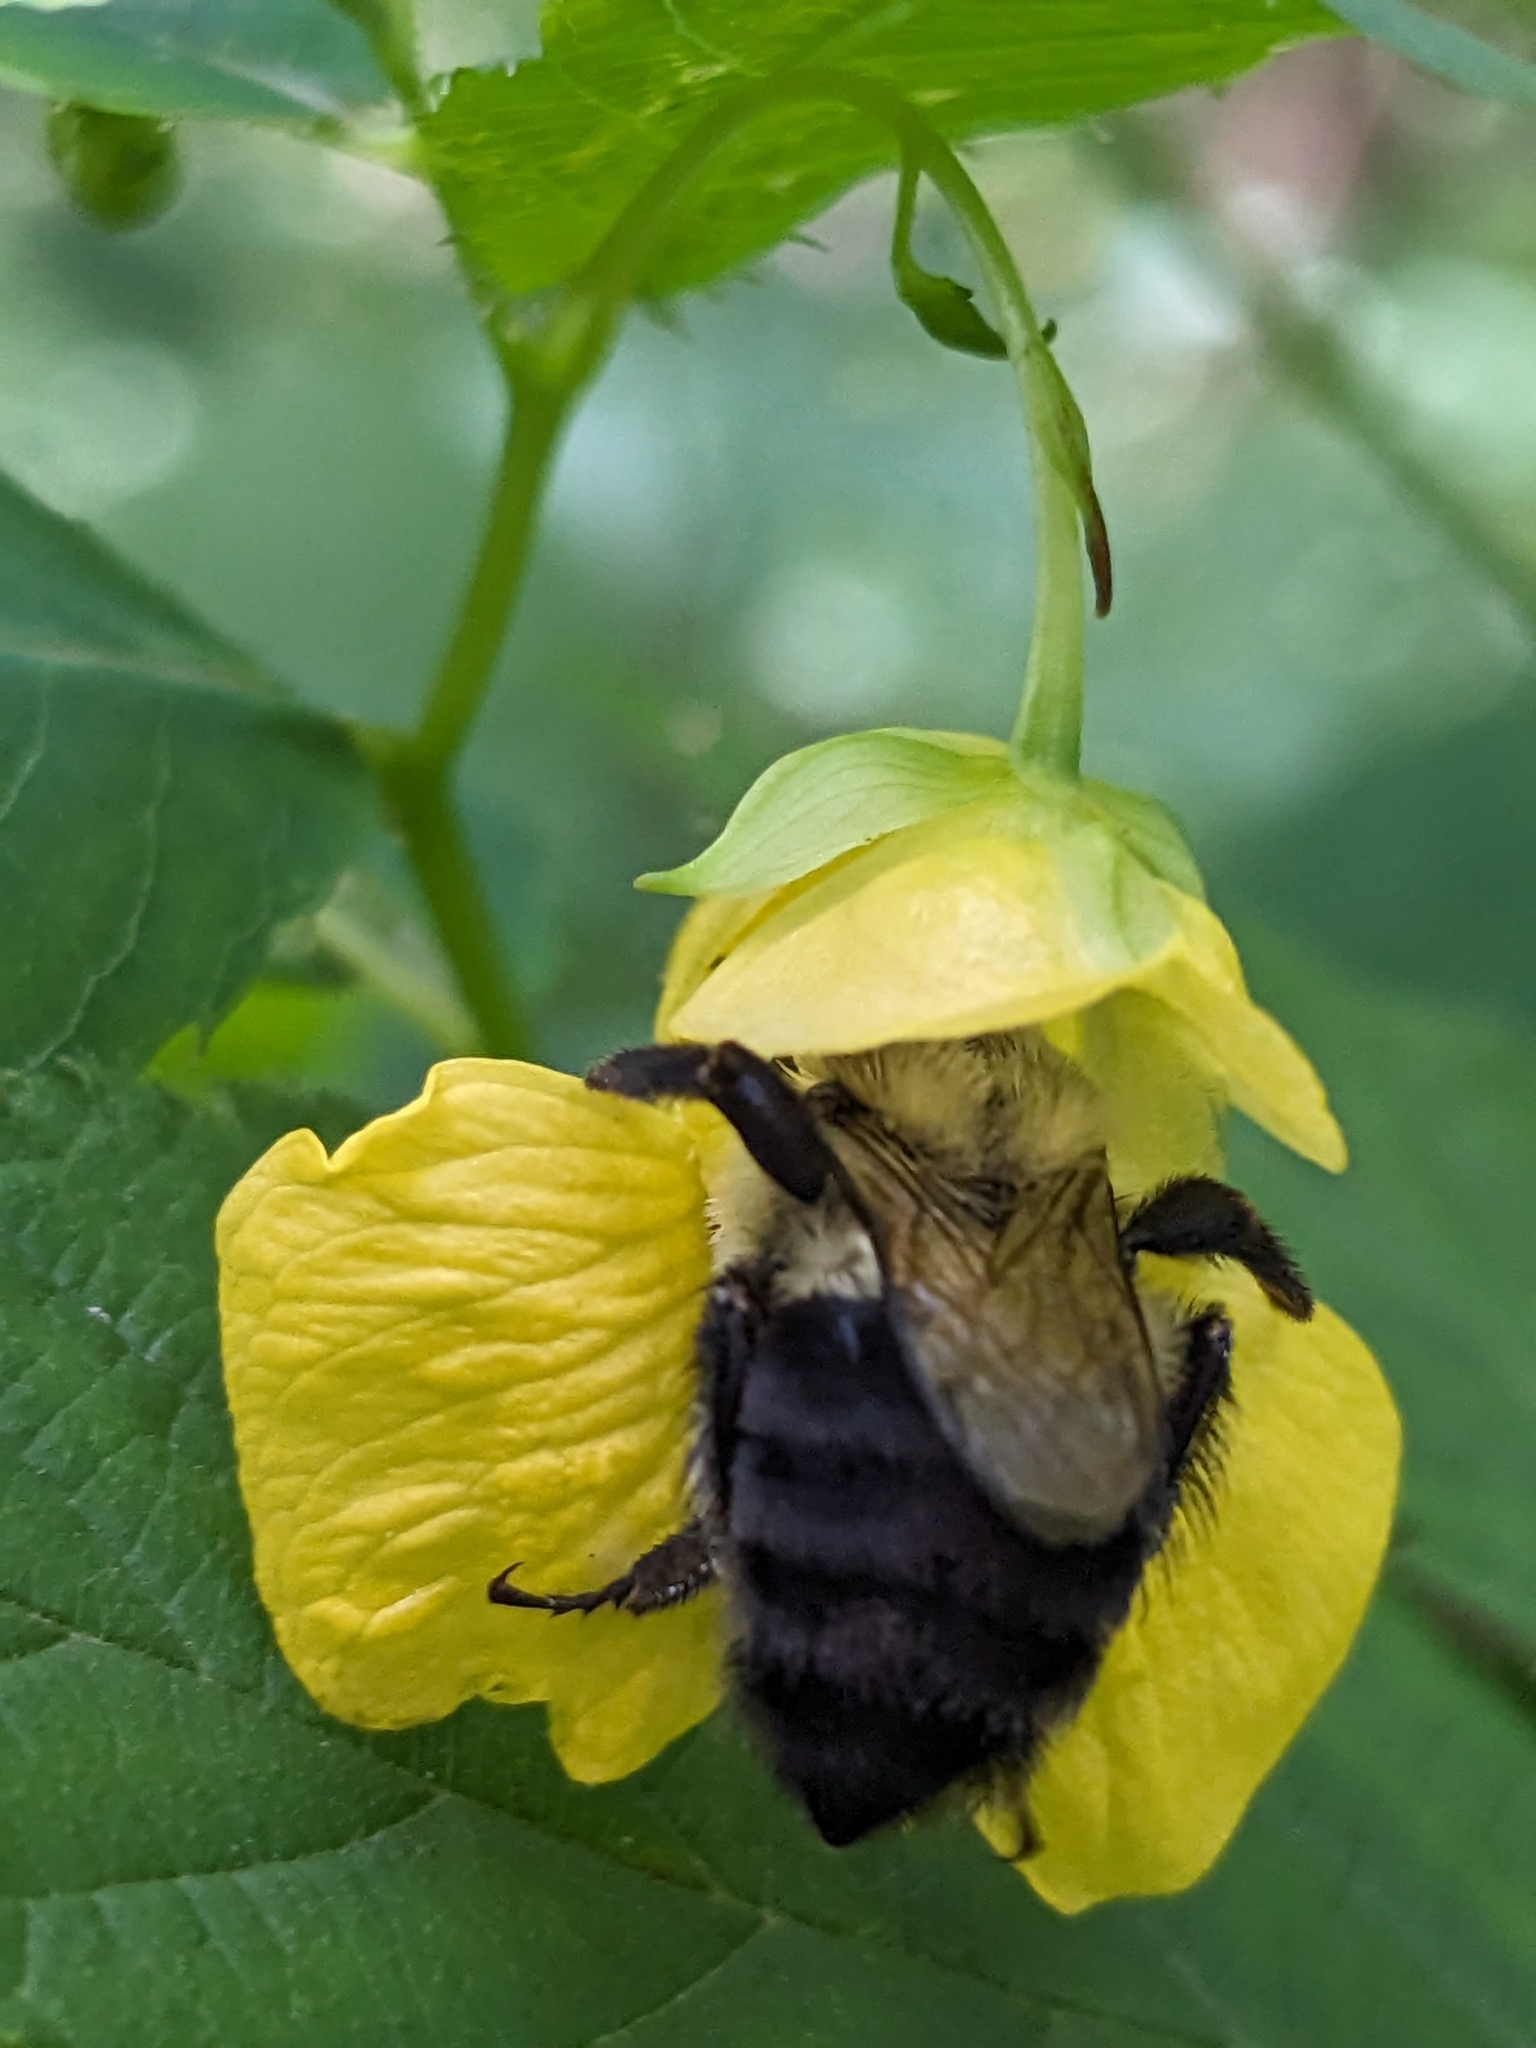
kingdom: Animalia
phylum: Arthropoda
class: Insecta
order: Hymenoptera
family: Apidae
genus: Bombus
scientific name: Bombus impatiens
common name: Common eastern bumble bee
